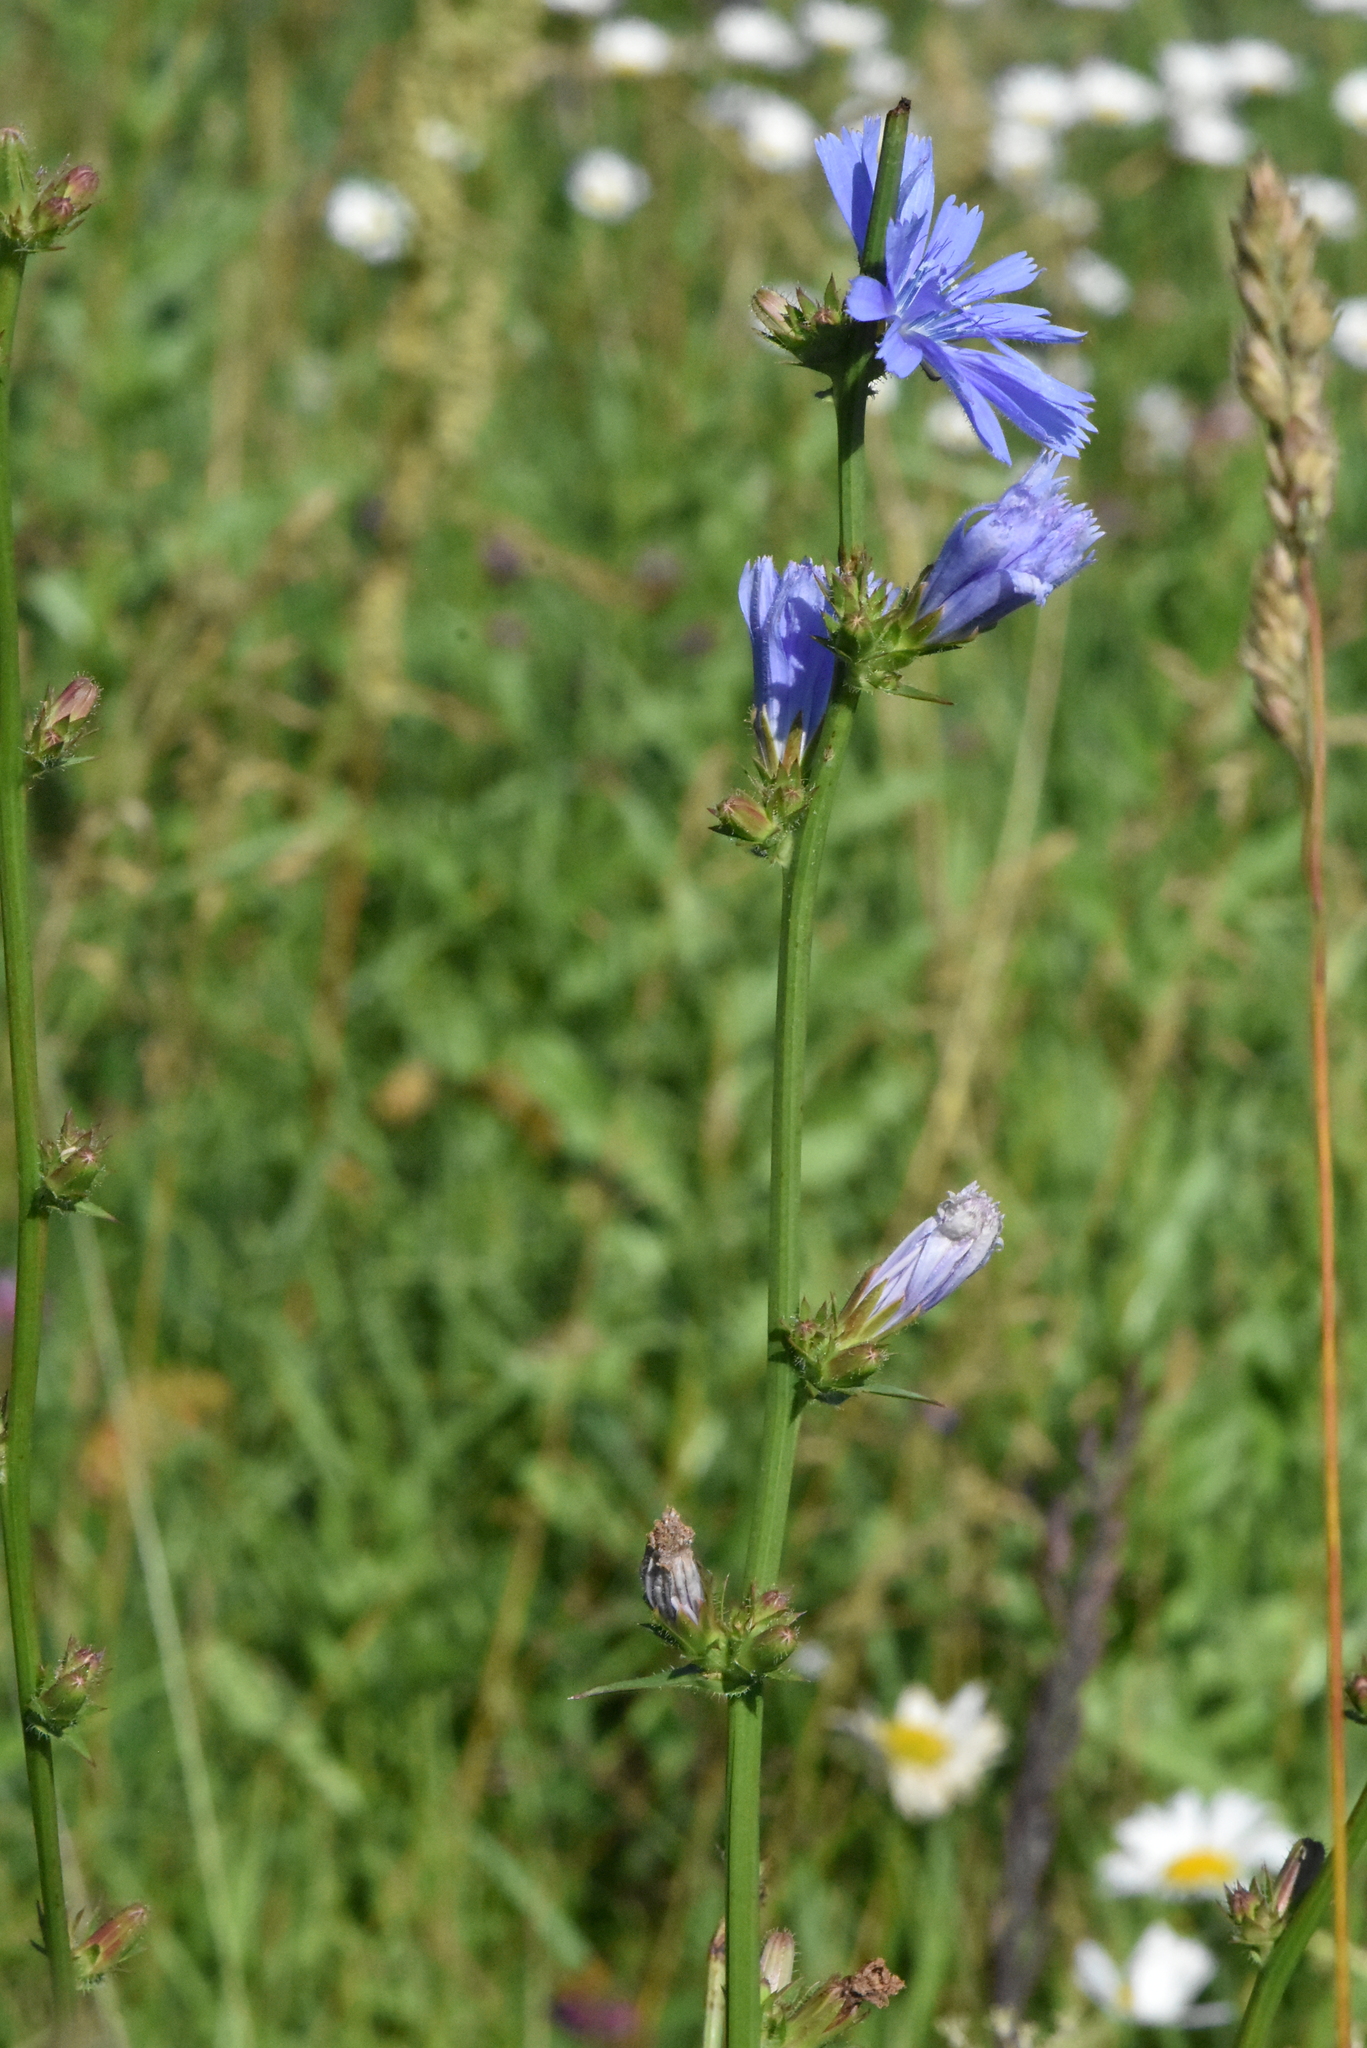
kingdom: Plantae
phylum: Tracheophyta
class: Magnoliopsida
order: Asterales
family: Asteraceae
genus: Cichorium
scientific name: Cichorium intybus
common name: Chicory
